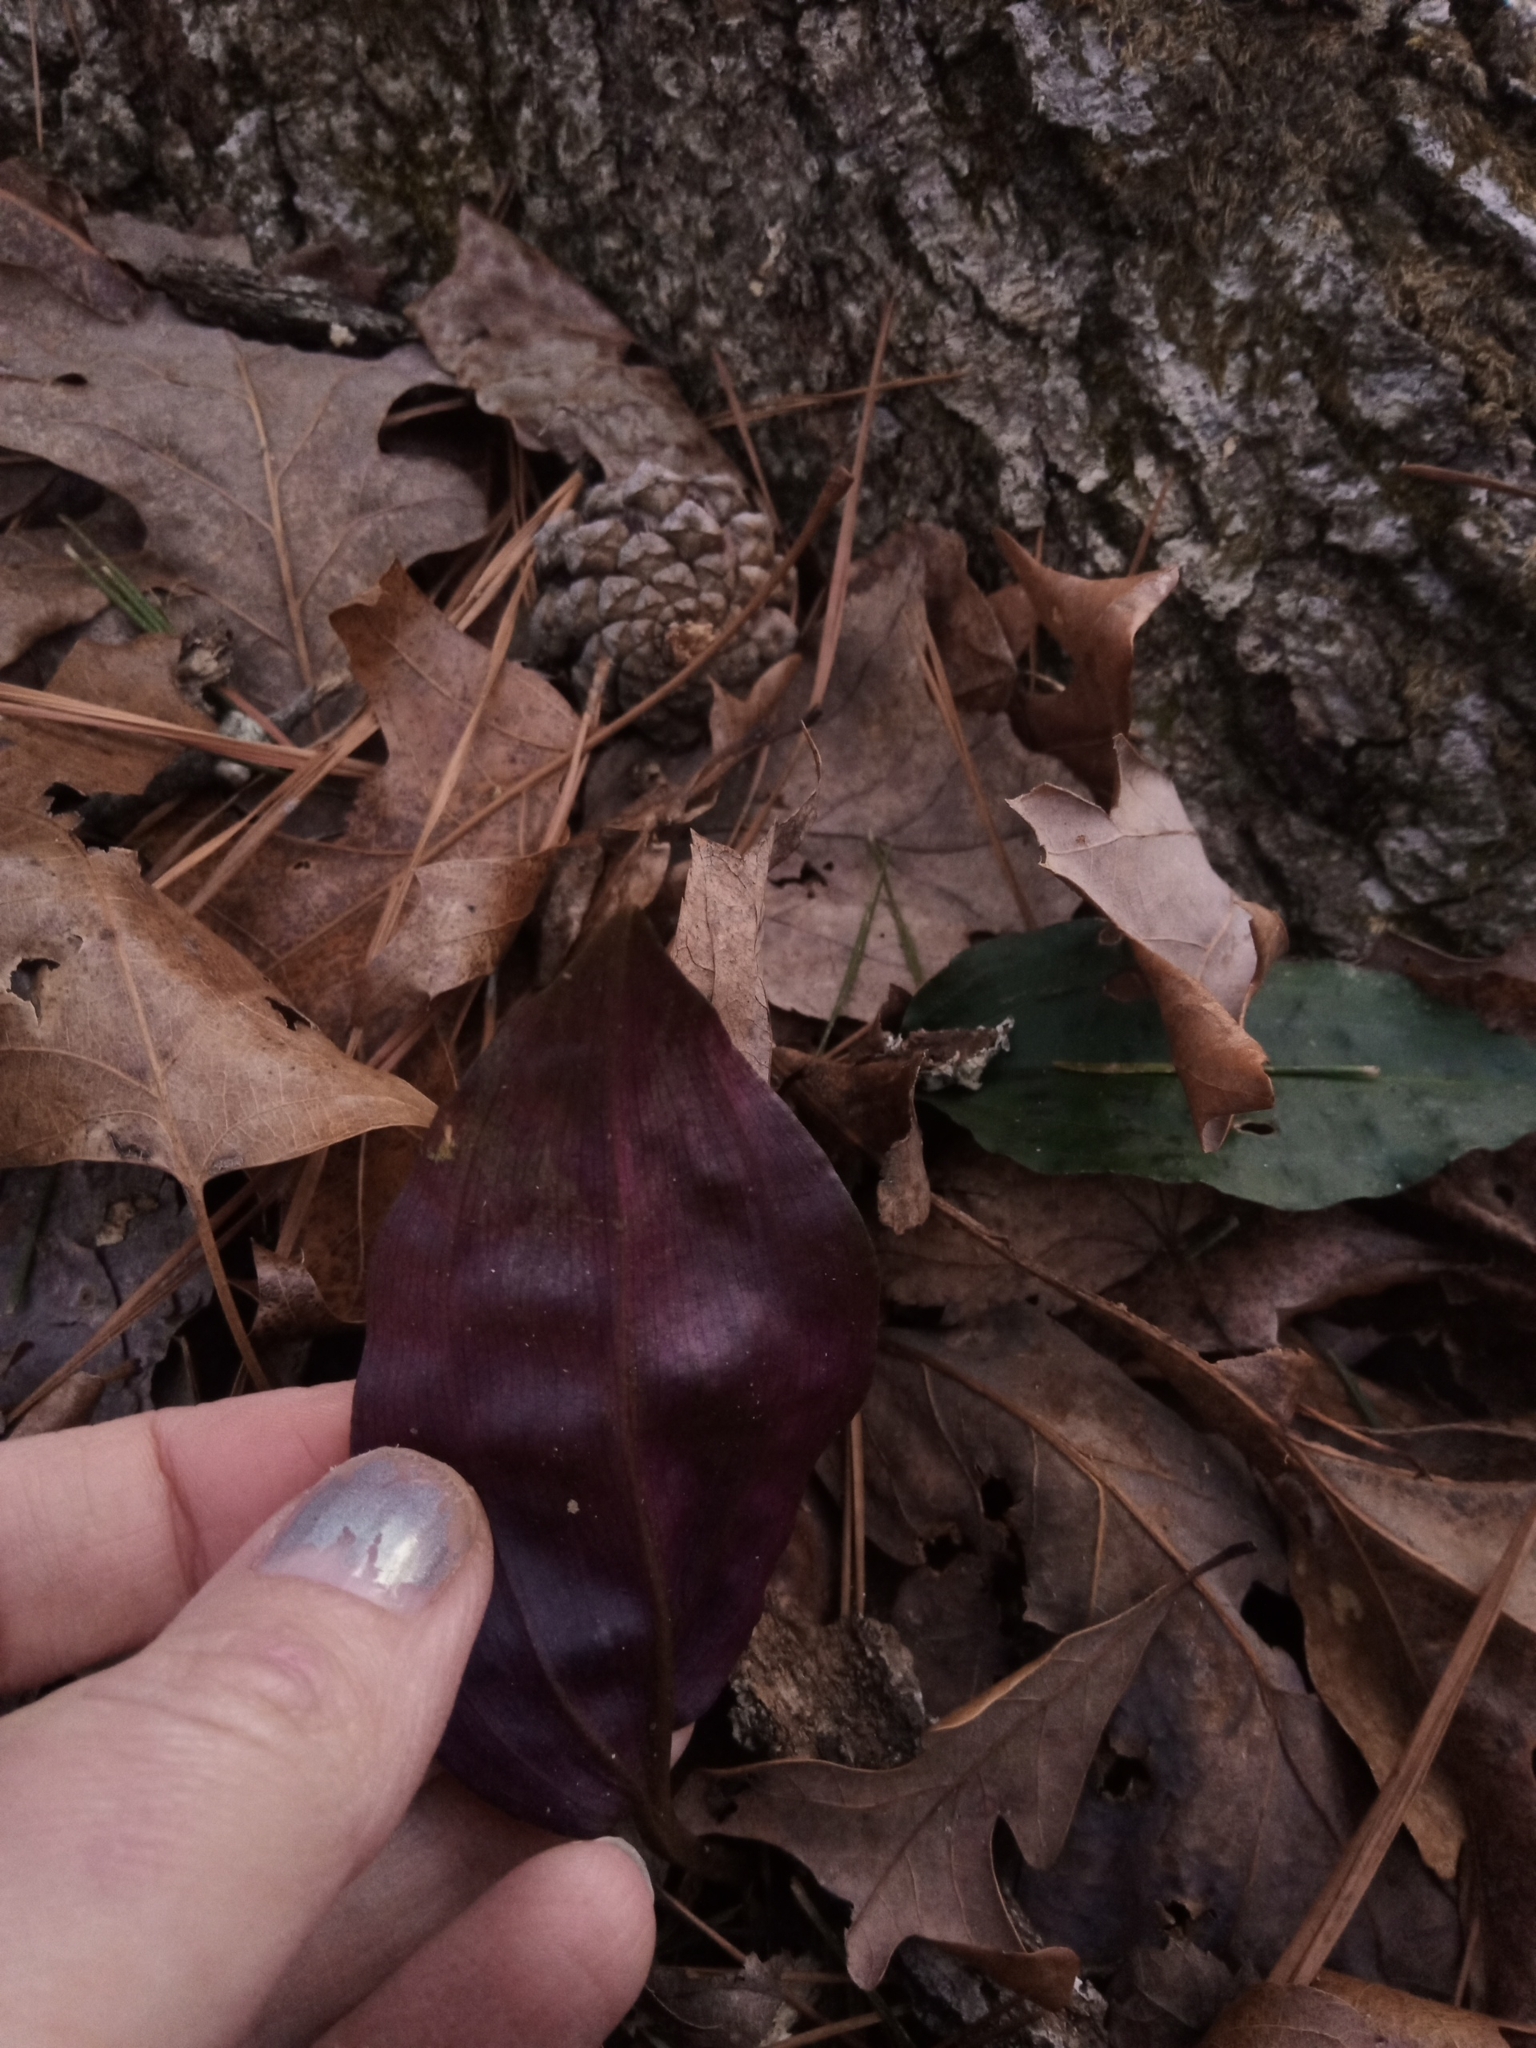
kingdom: Plantae
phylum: Tracheophyta
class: Liliopsida
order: Asparagales
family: Orchidaceae
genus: Tipularia
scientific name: Tipularia discolor
